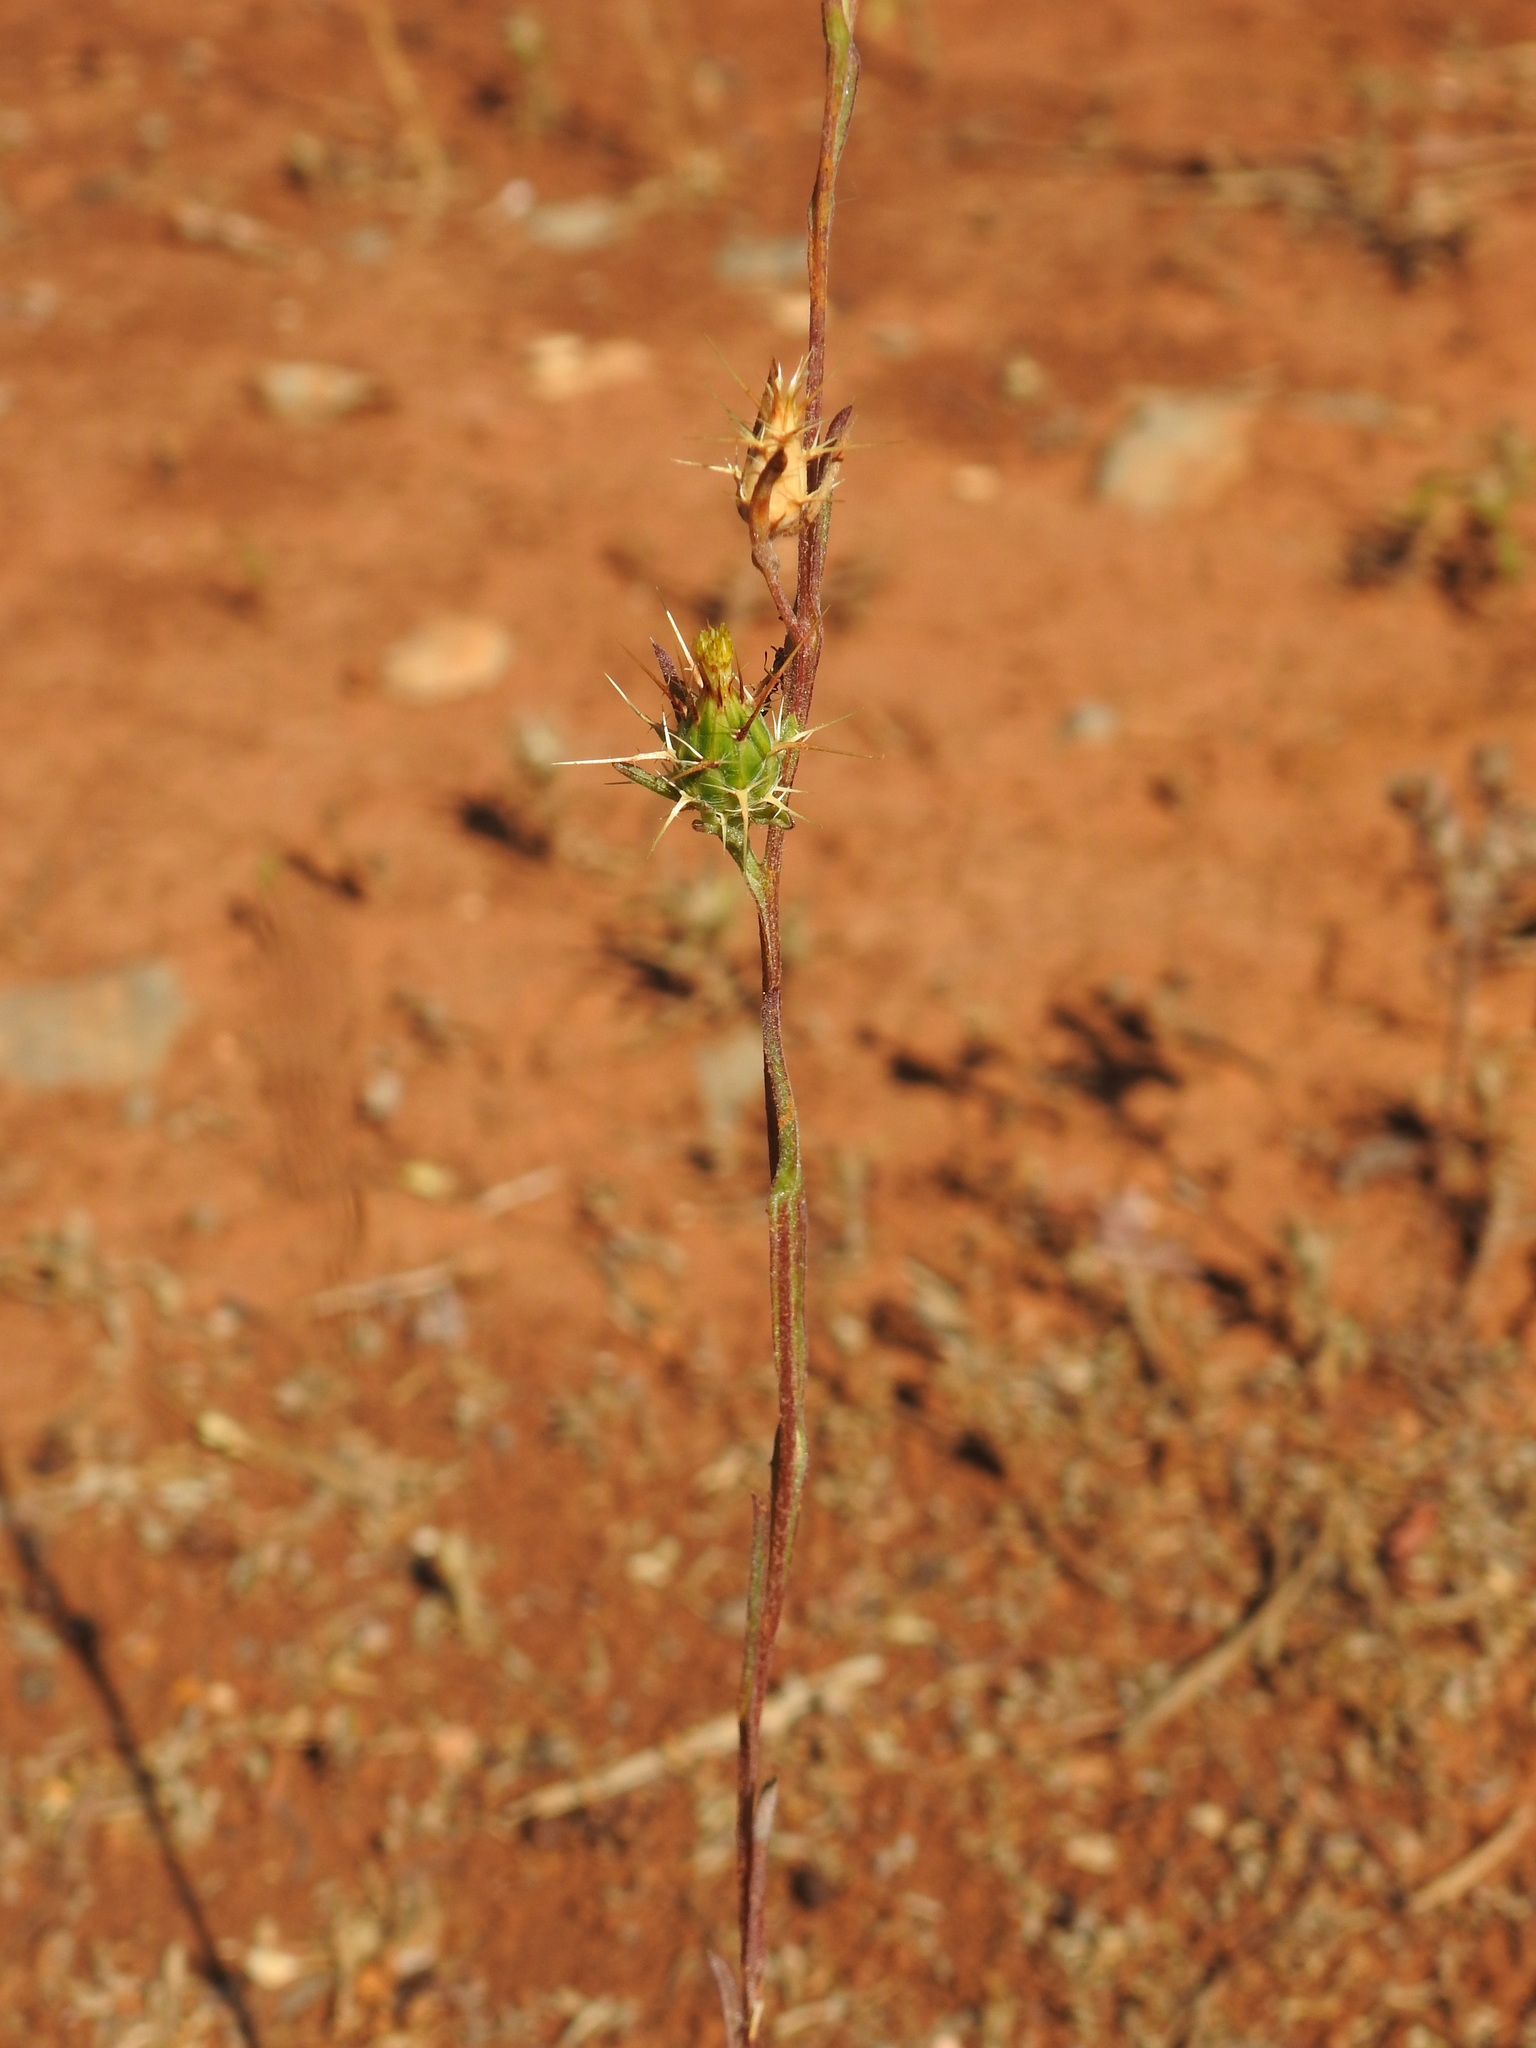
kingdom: Plantae
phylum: Tracheophyta
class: Magnoliopsida
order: Asterales
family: Asteraceae
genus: Centaurea
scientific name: Centaurea melitensis
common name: Maltese star-thistle
